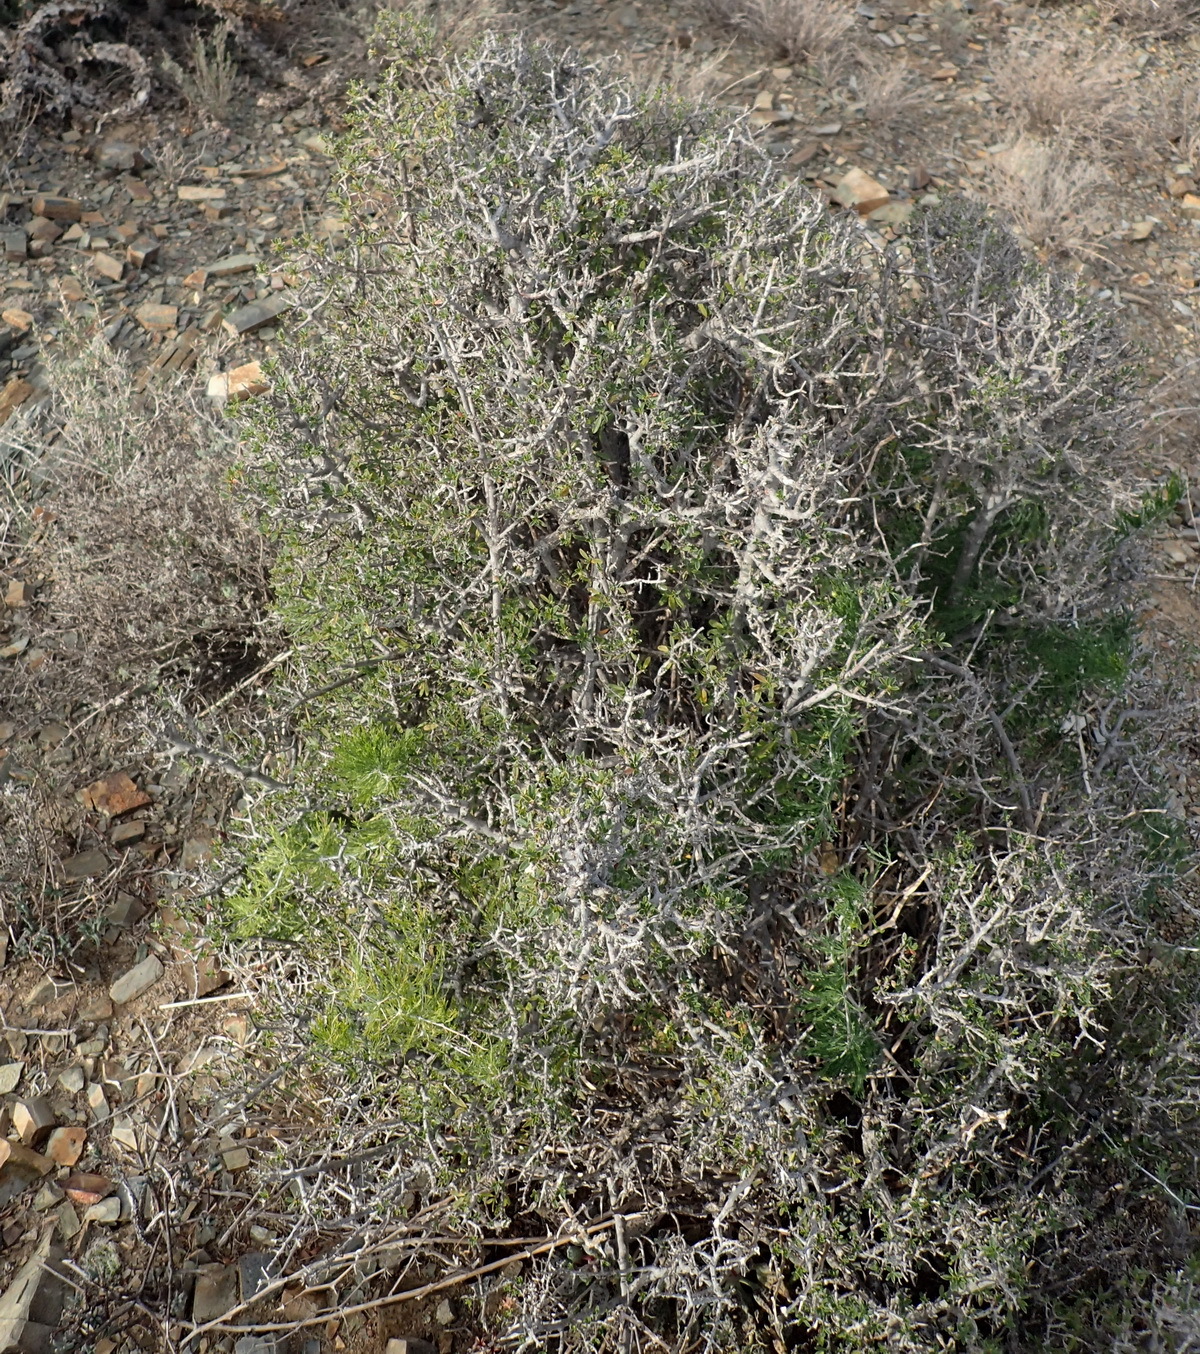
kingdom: Plantae
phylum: Tracheophyta
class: Magnoliopsida
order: Ericales
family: Ebenaceae
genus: Diospyros
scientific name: Diospyros pubescens
